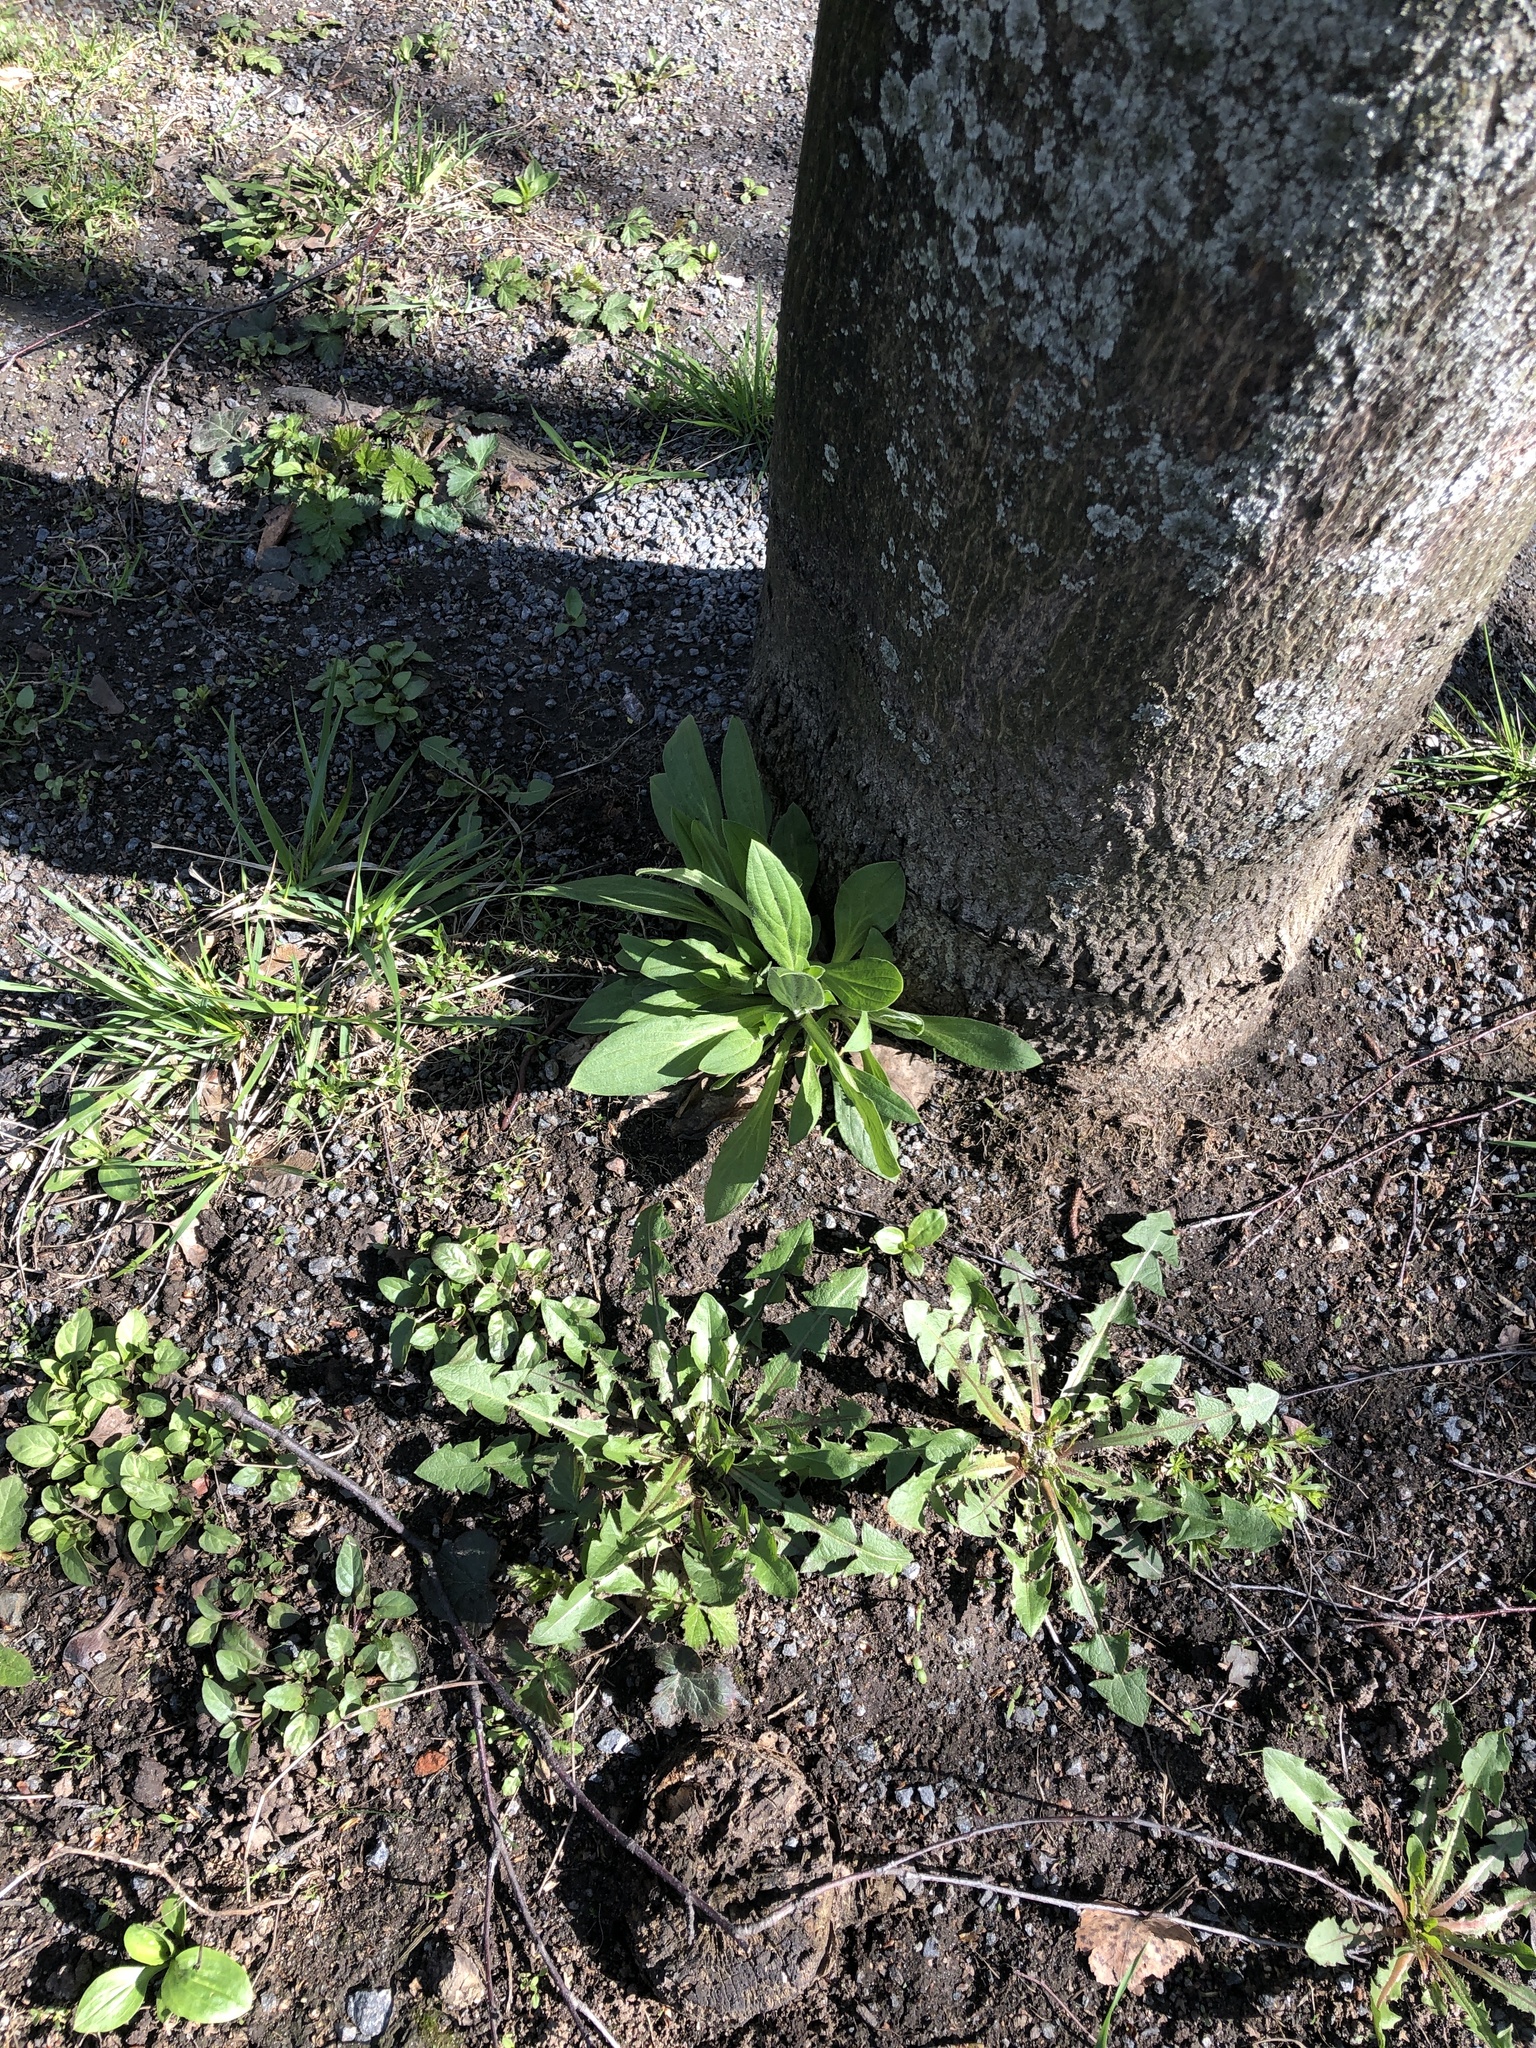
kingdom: Plantae
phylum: Tracheophyta
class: Magnoliopsida
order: Caryophyllales
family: Caryophyllaceae
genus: Silene
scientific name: Silene latifolia
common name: White campion
